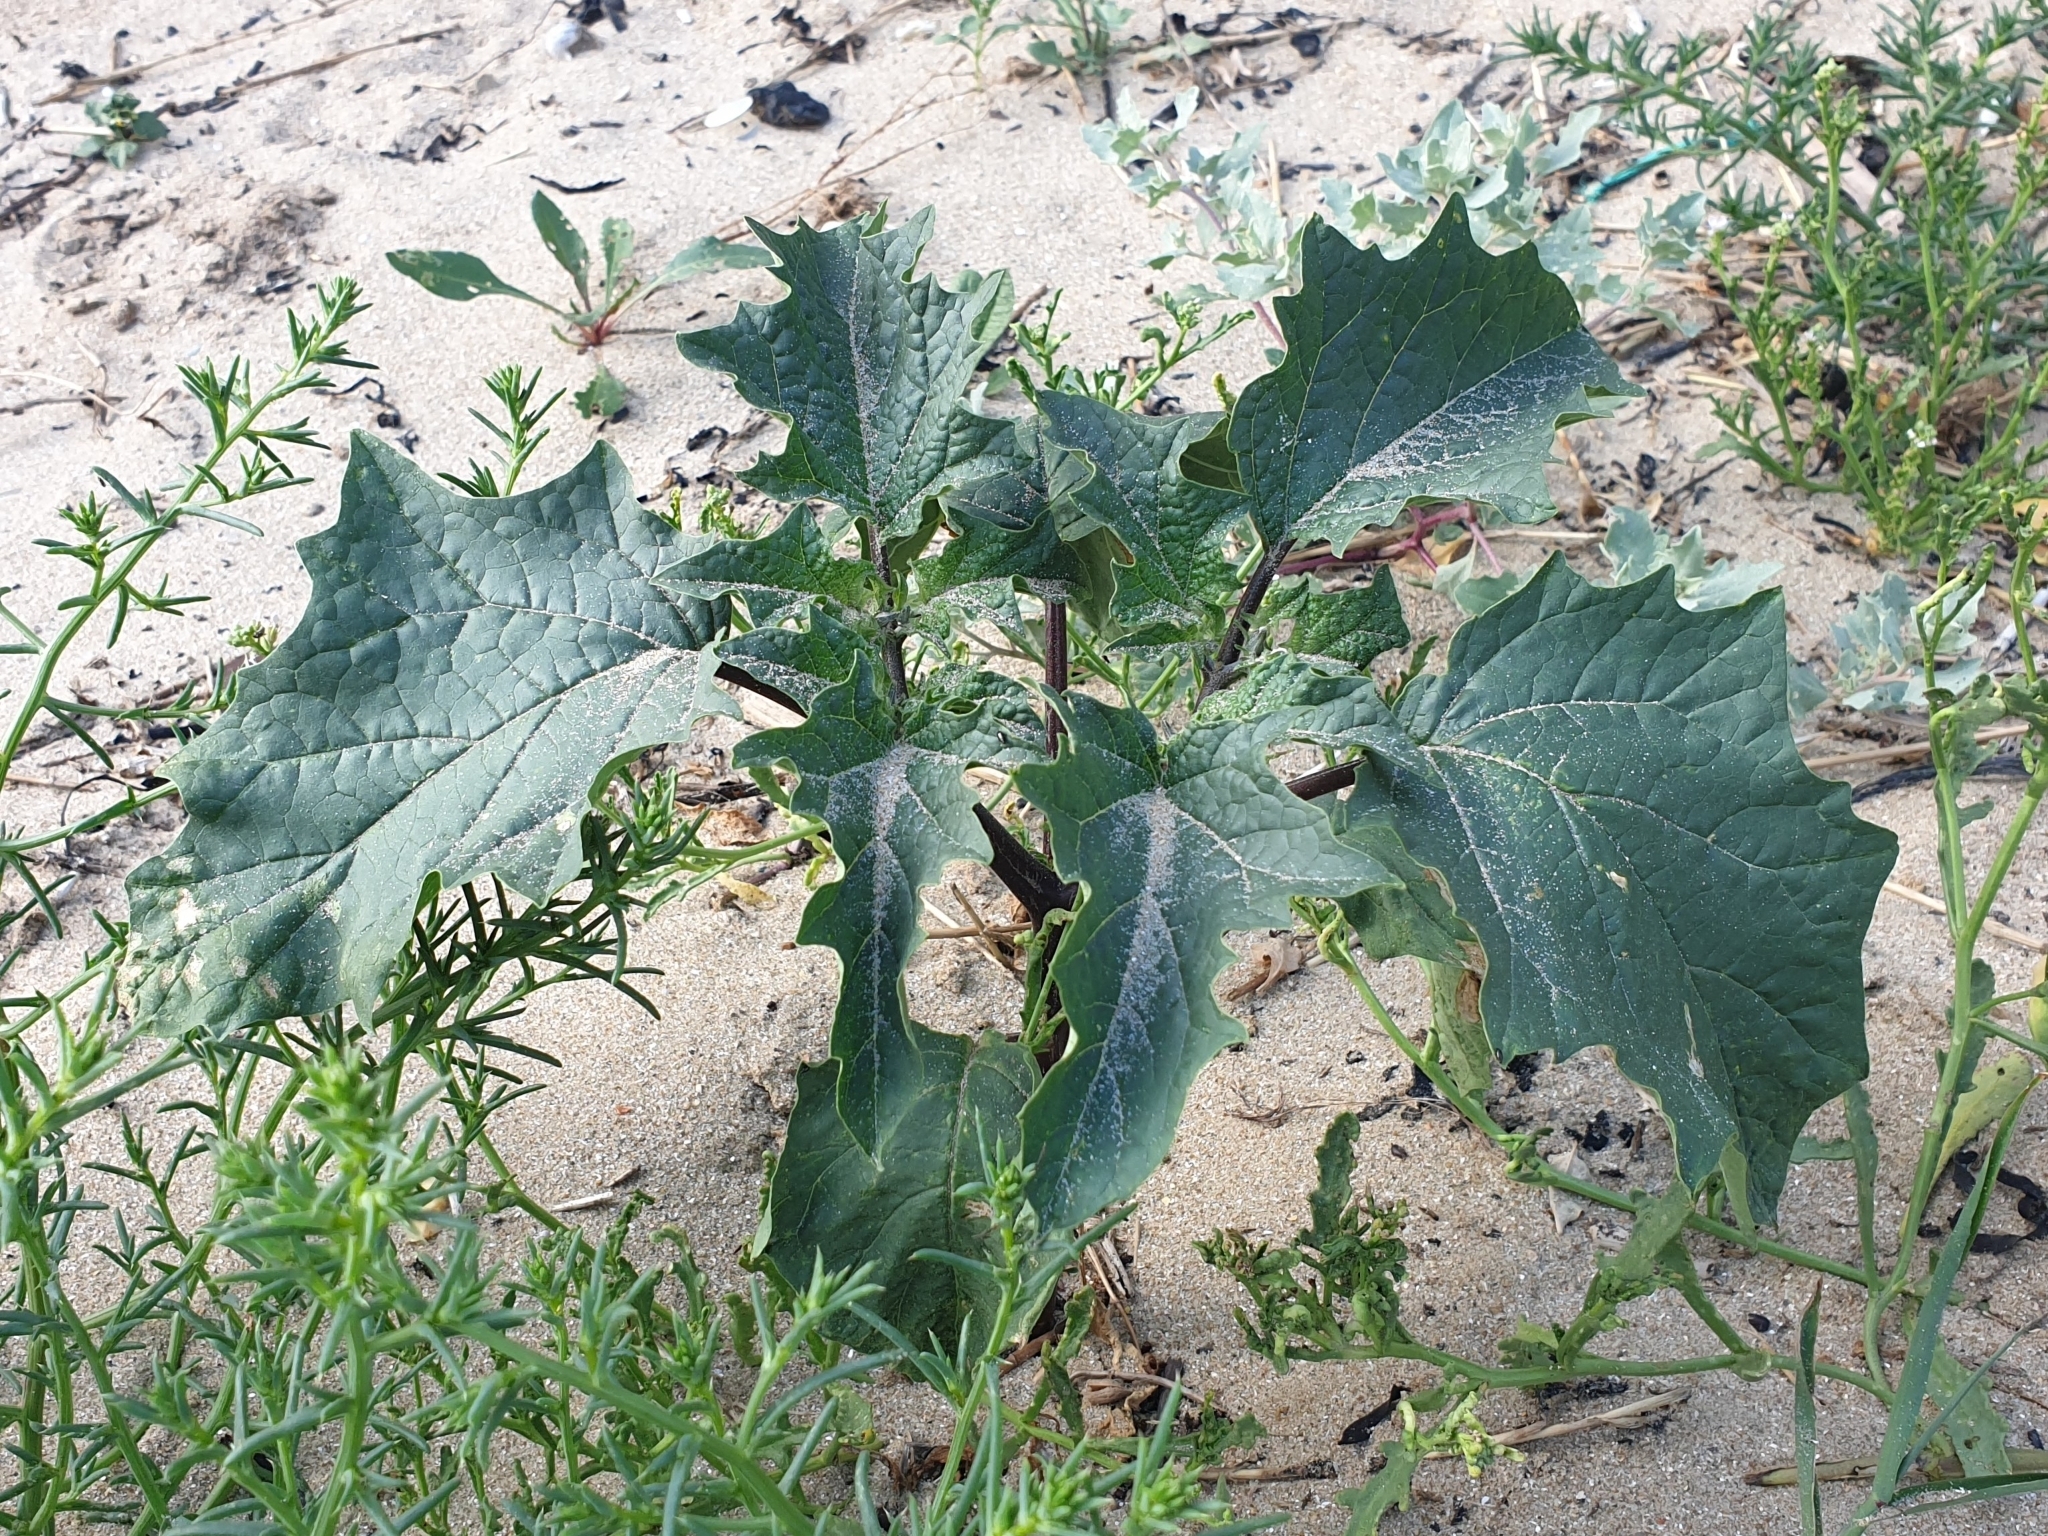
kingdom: Plantae
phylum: Tracheophyta
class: Magnoliopsida
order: Solanales
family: Solanaceae
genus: Datura
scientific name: Datura stramonium
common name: Thorn-apple
